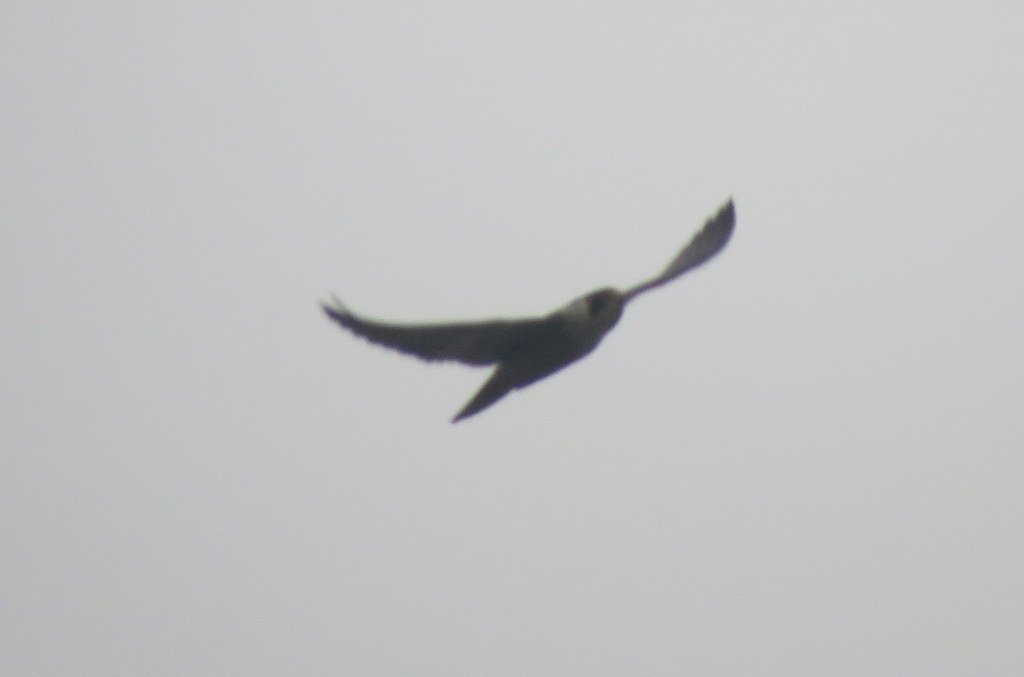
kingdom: Animalia
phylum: Chordata
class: Aves
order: Falconiformes
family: Falconidae
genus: Falco
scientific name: Falco peregrinus
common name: Peregrine falcon
